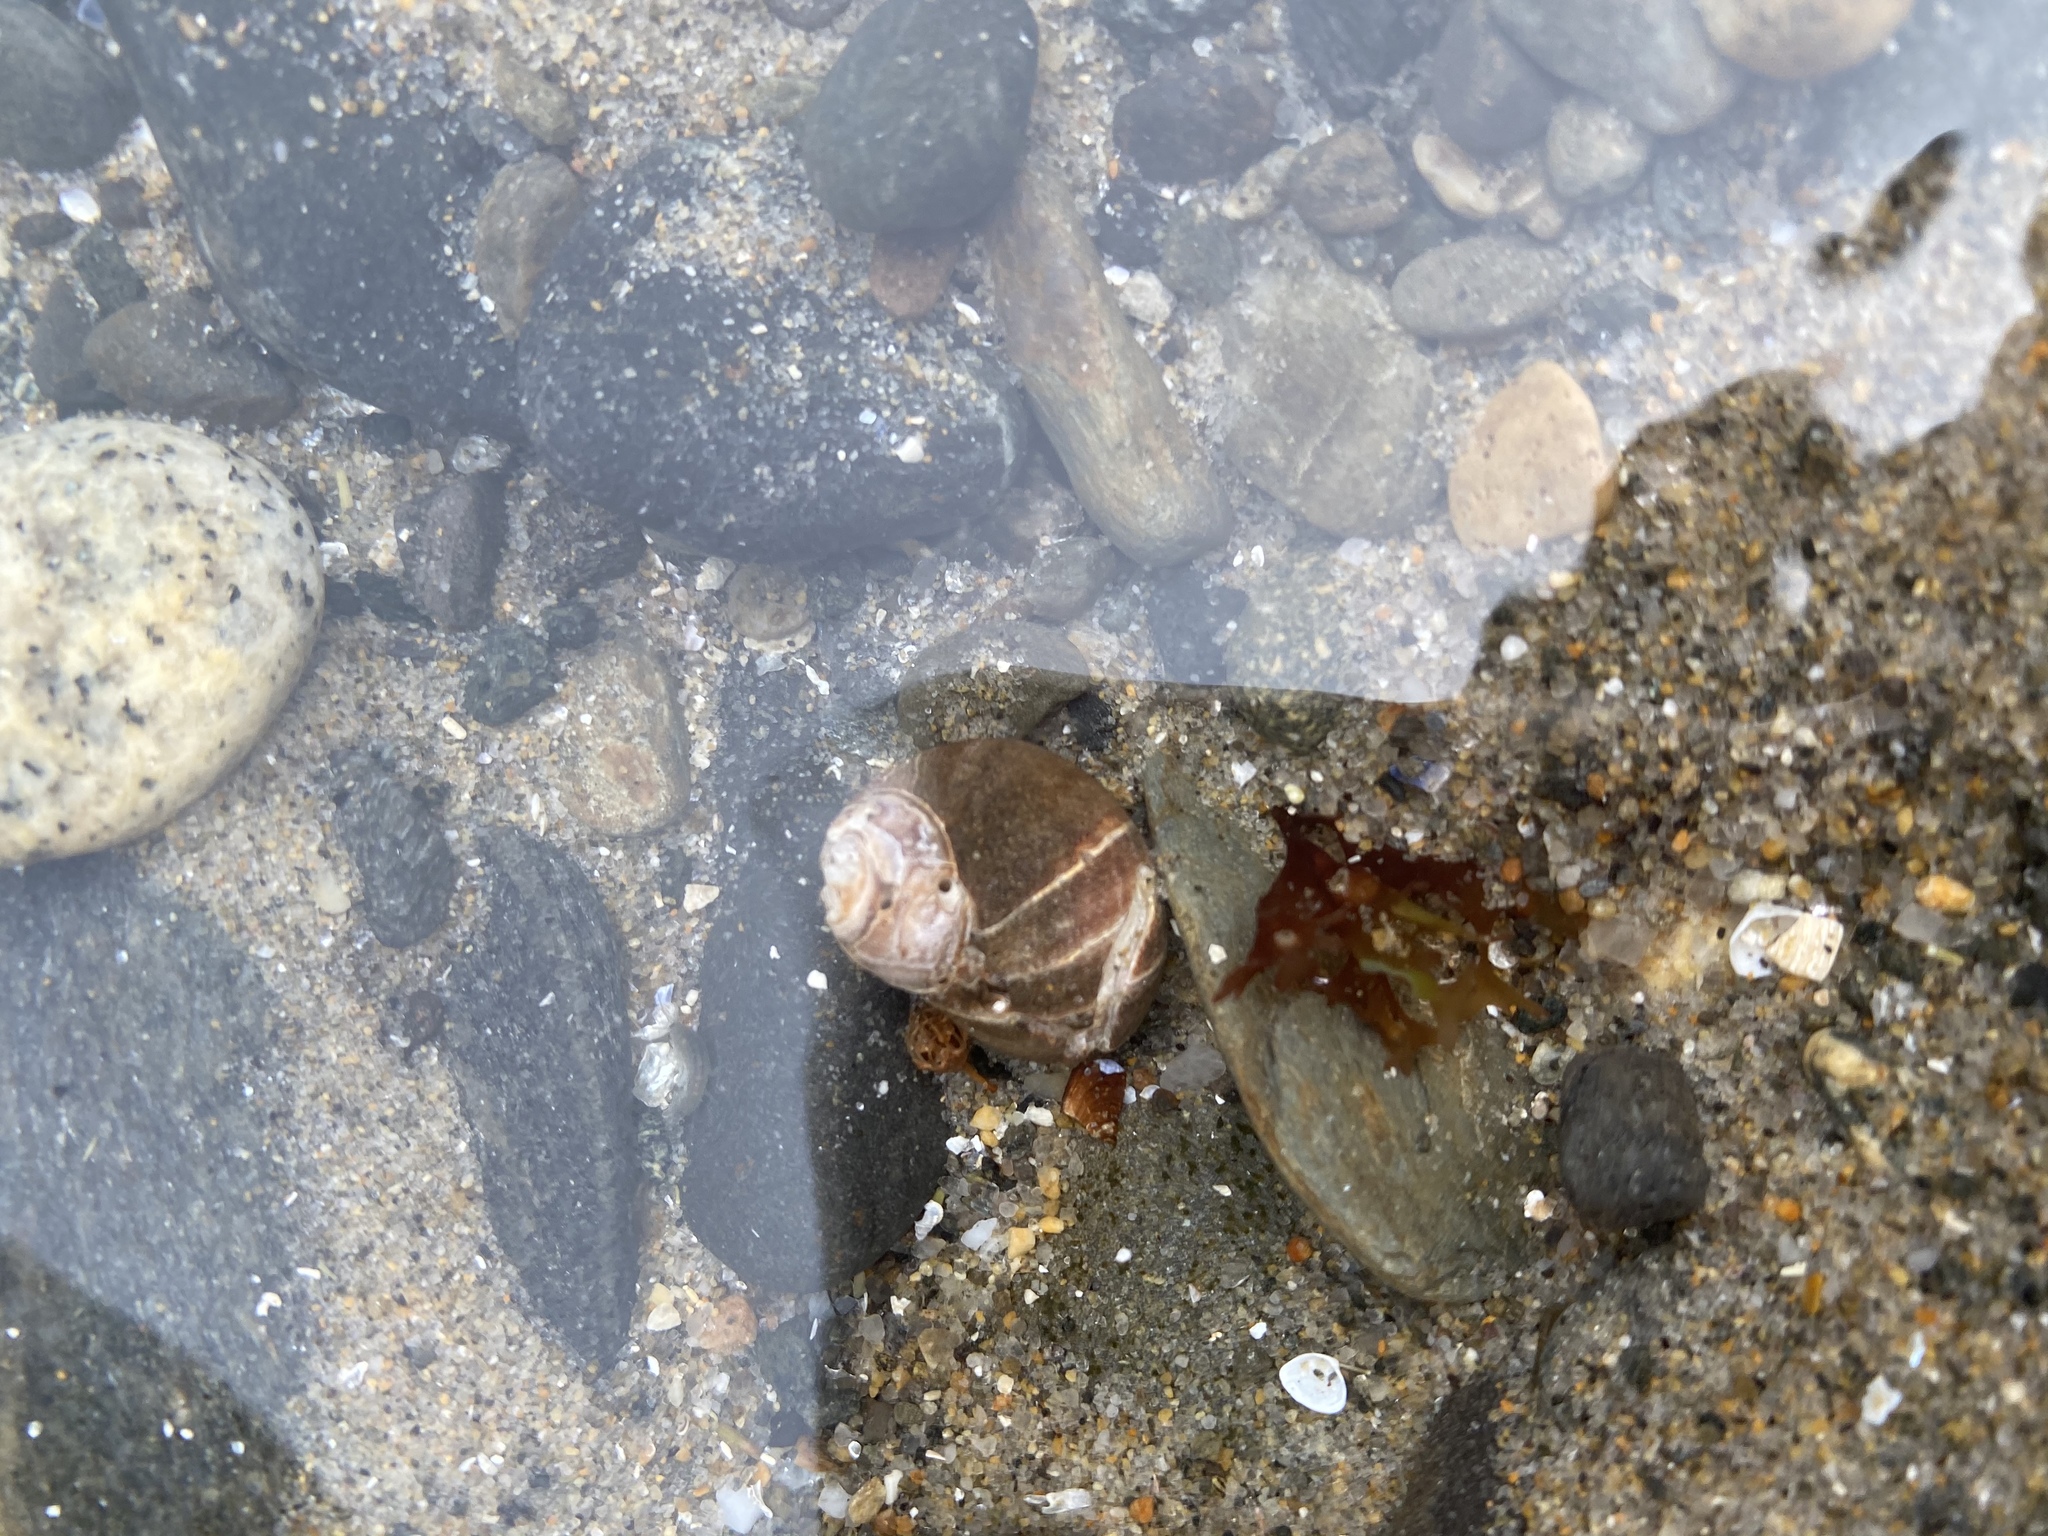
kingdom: Animalia
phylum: Mollusca
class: Gastropoda
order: Littorinimorpha
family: Littorinidae
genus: Littorina
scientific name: Littorina littorea
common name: Common periwinkle
